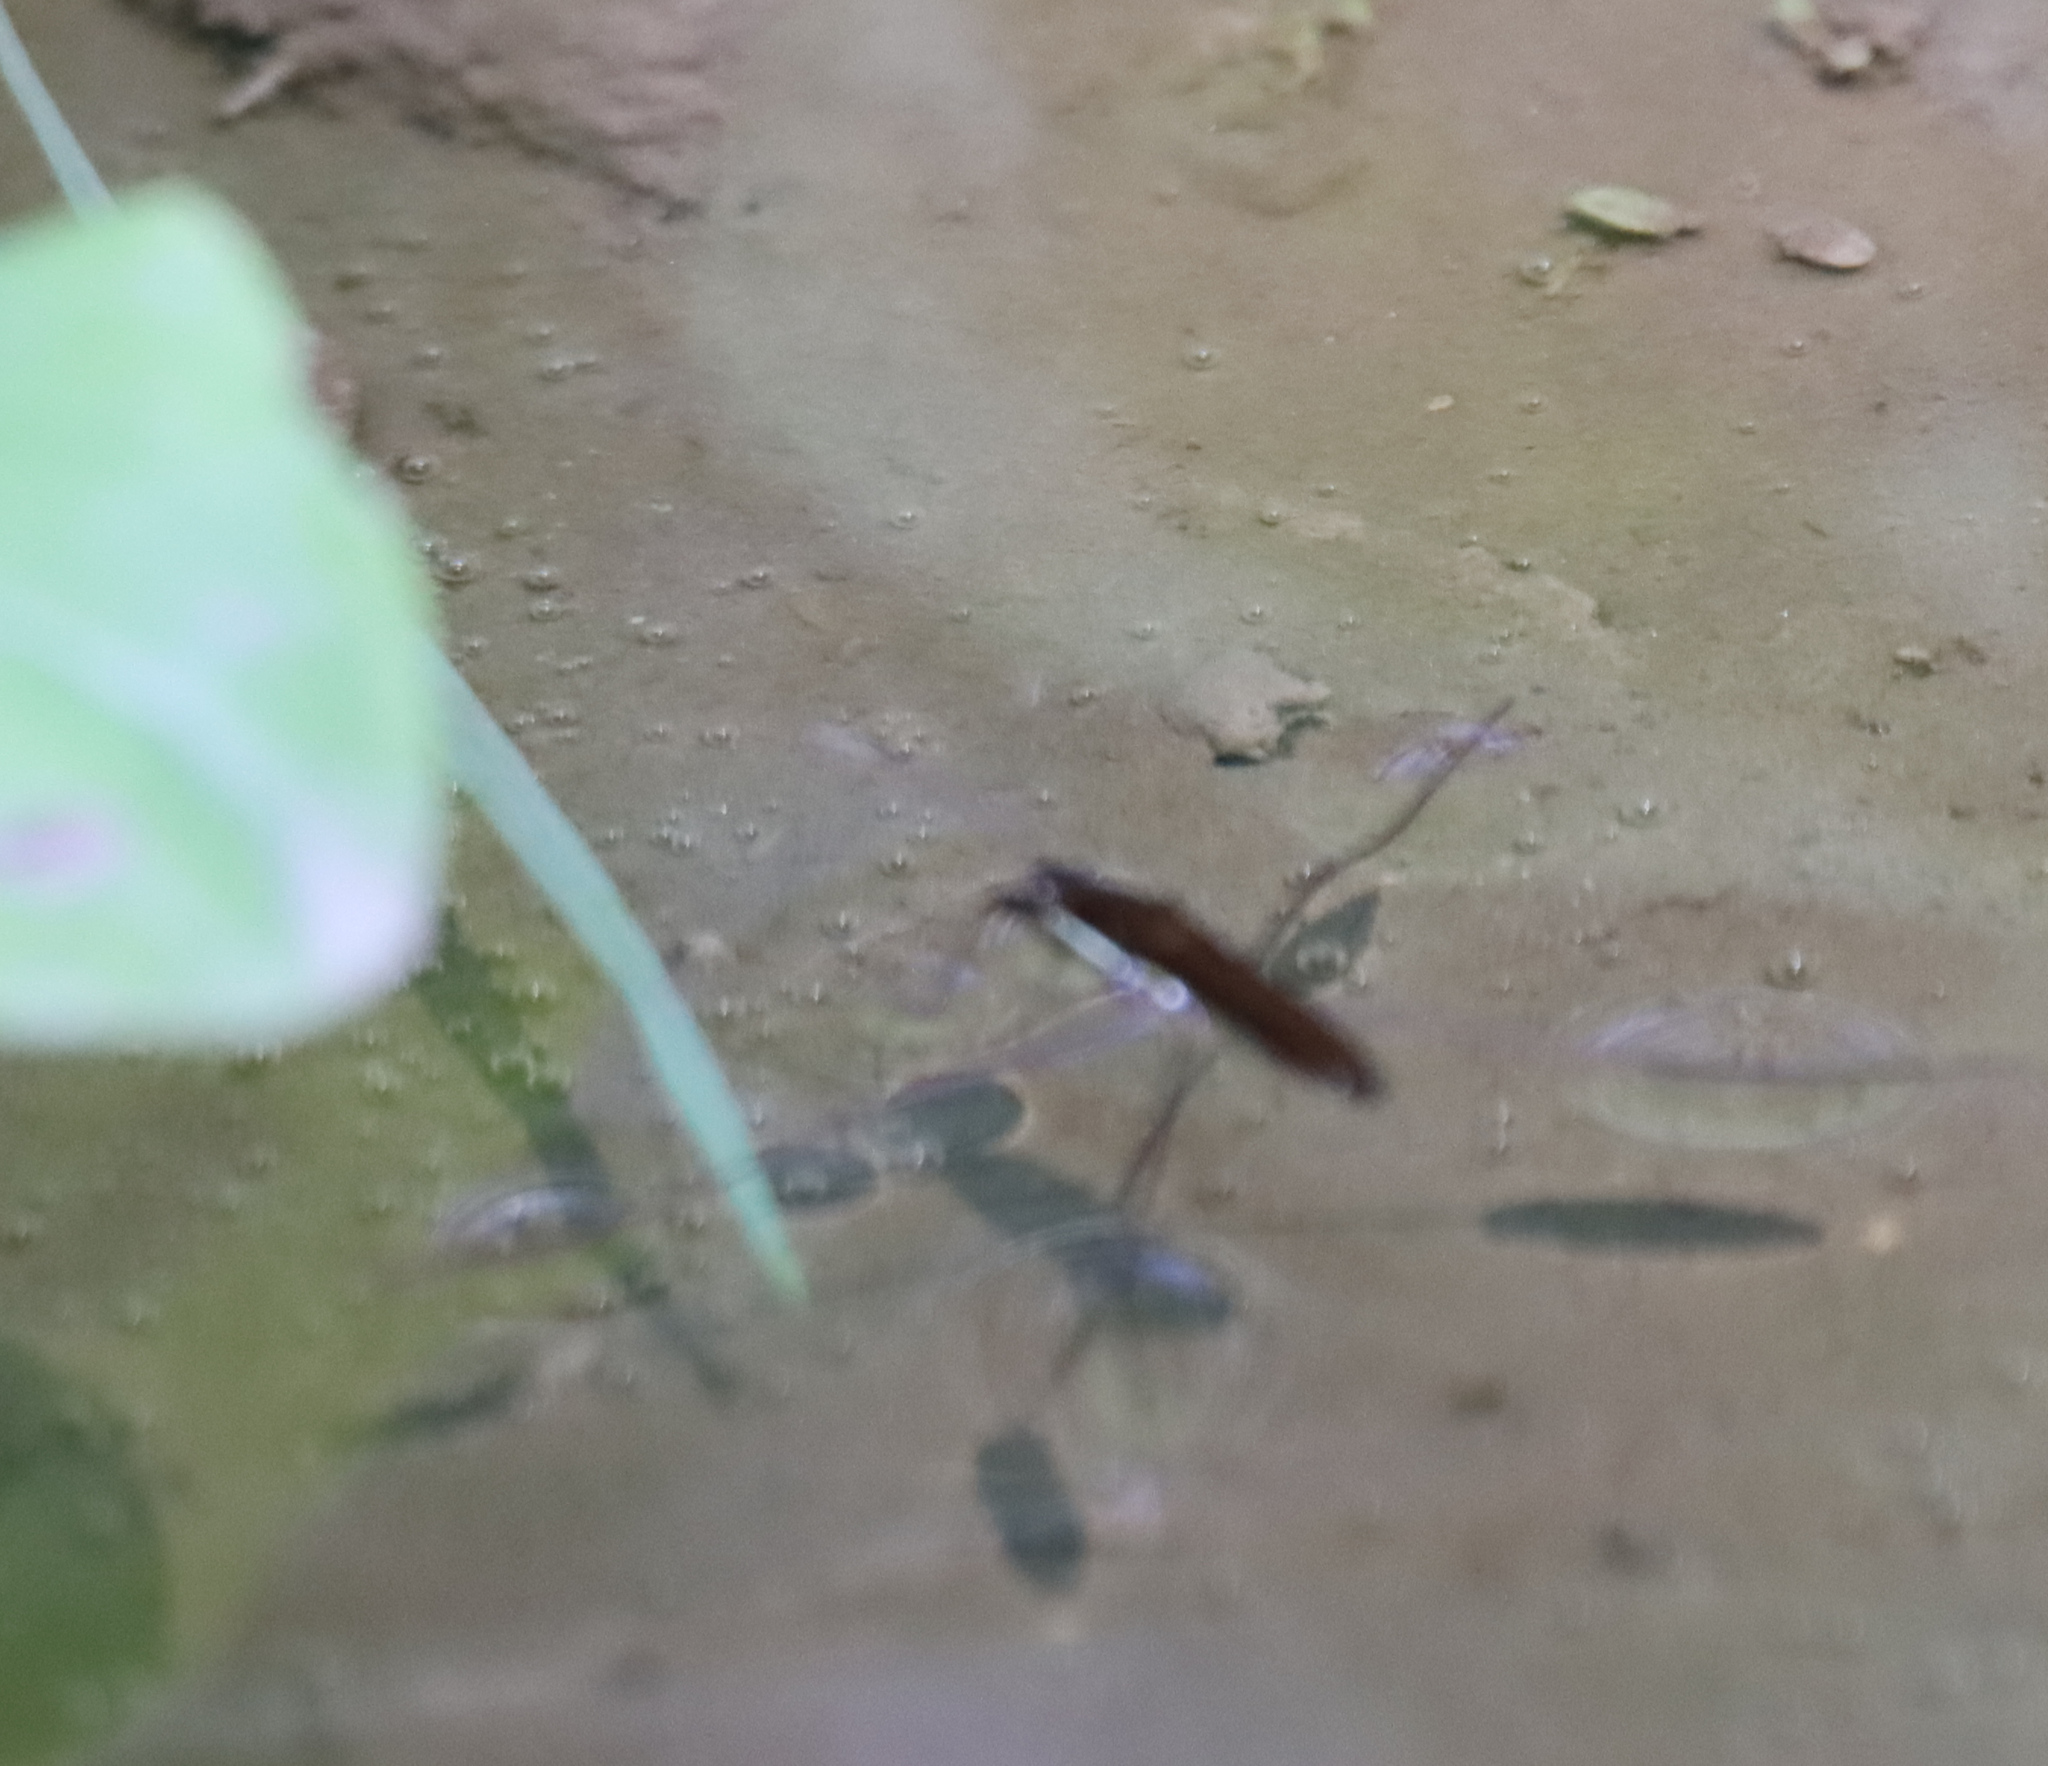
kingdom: Animalia
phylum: Arthropoda
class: Insecta
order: Hemiptera
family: Gerridae
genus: Limnoporus
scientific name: Limnoporus dissortis
